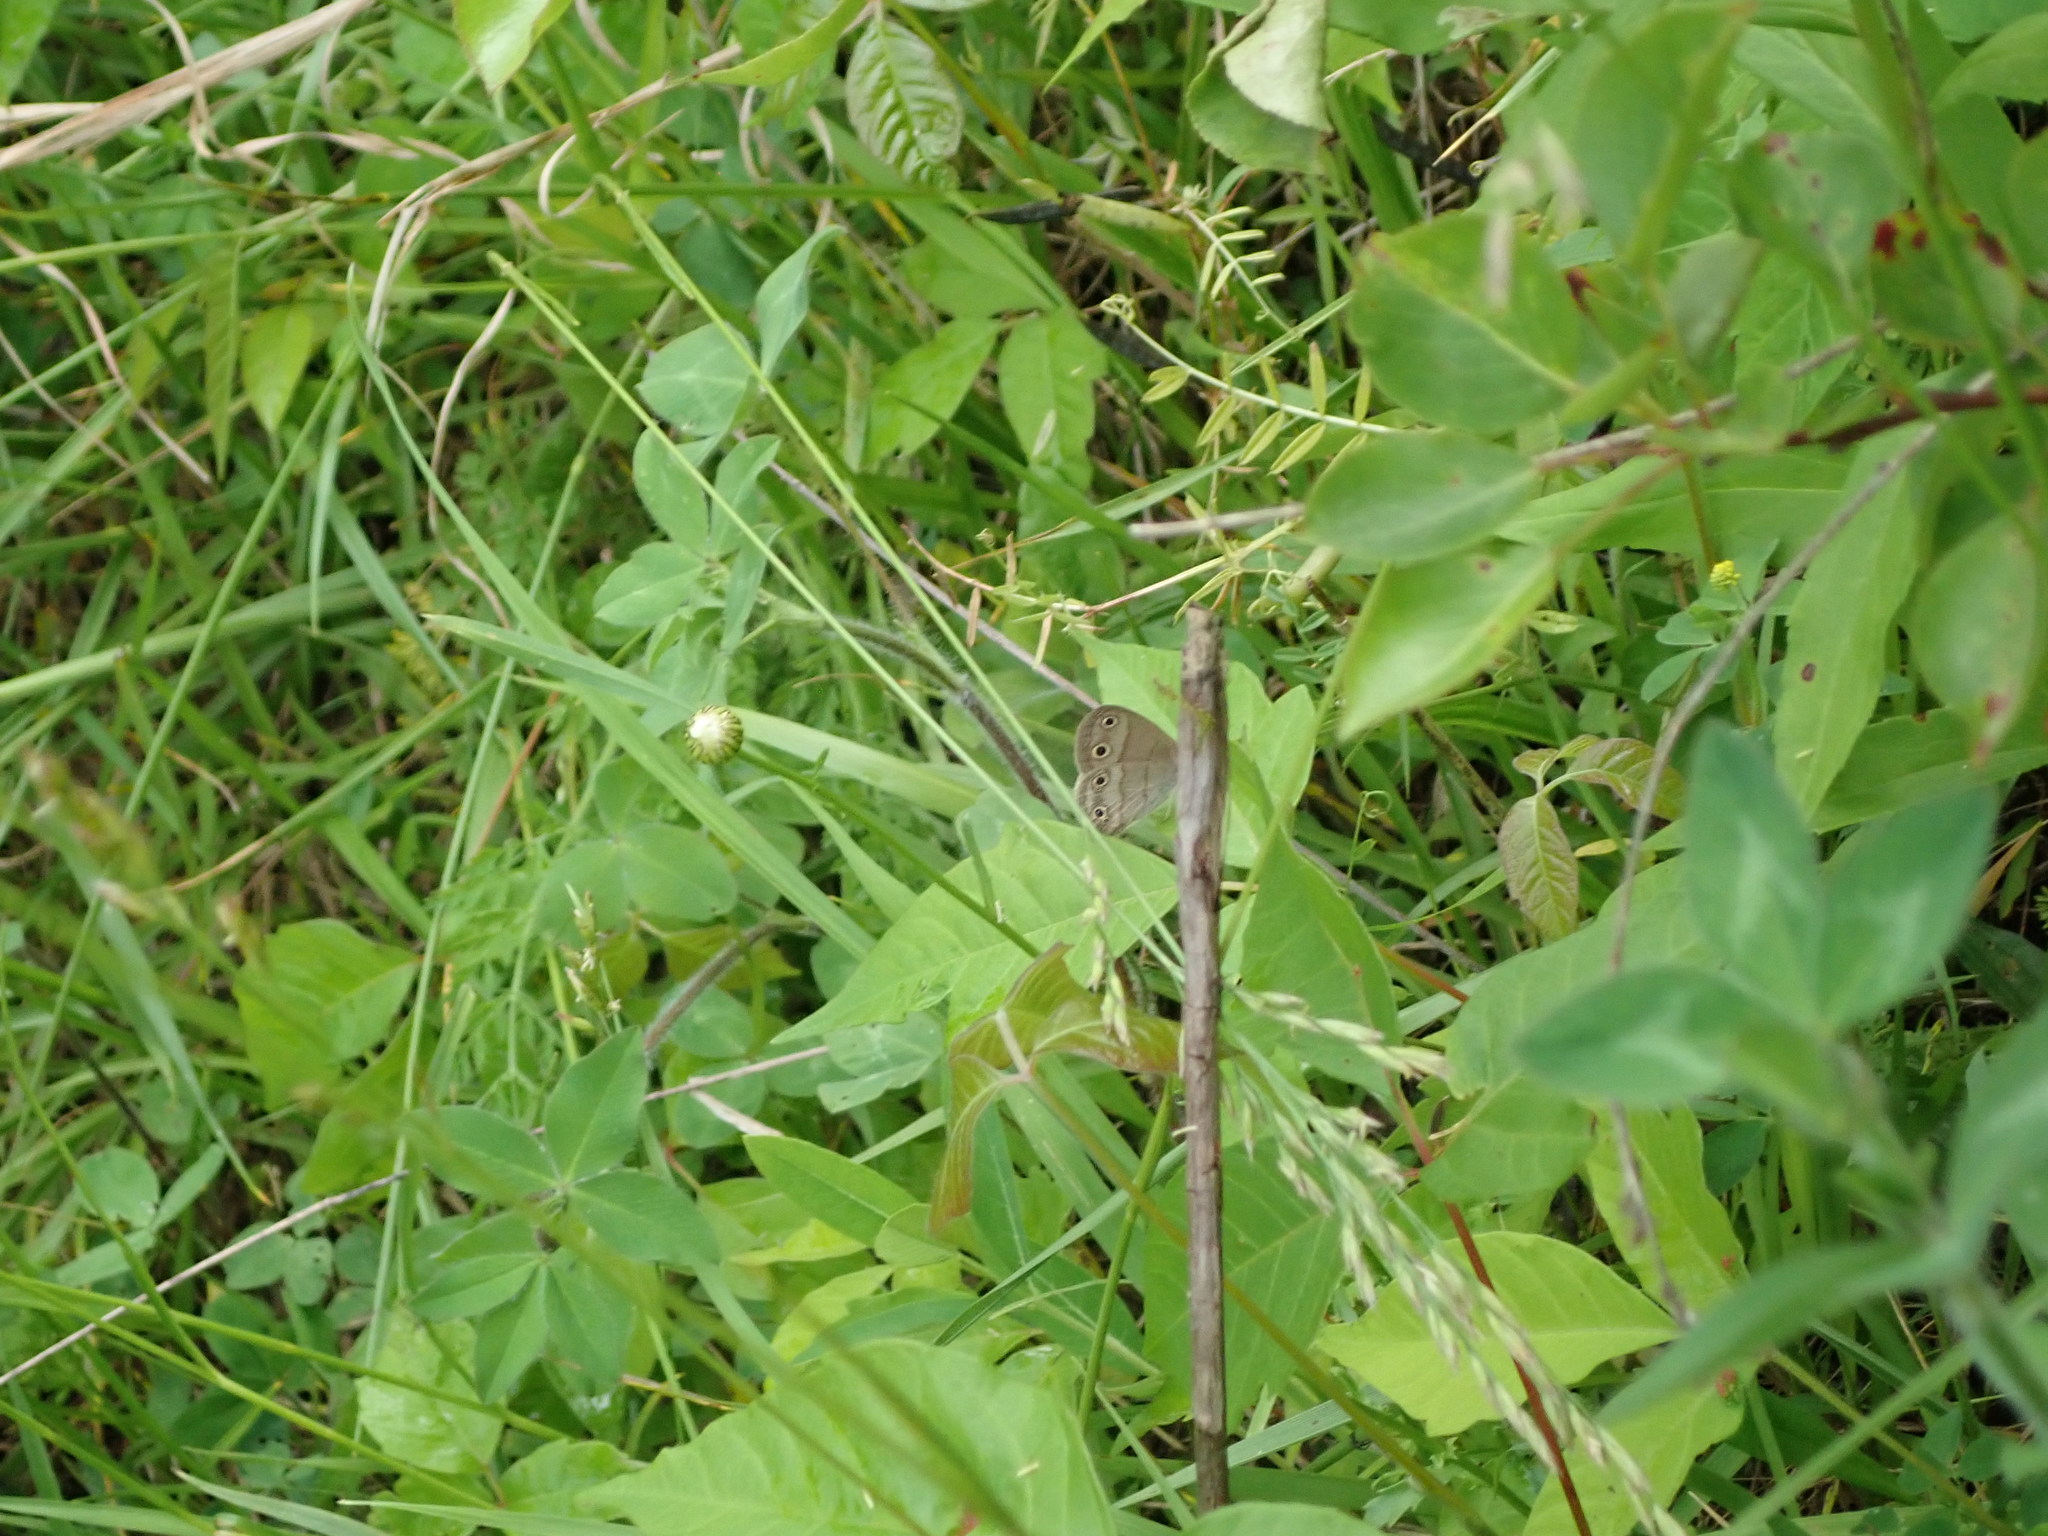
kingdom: Animalia
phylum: Arthropoda
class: Insecta
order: Lepidoptera
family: Nymphalidae
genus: Euptychia
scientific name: Euptychia cymela
